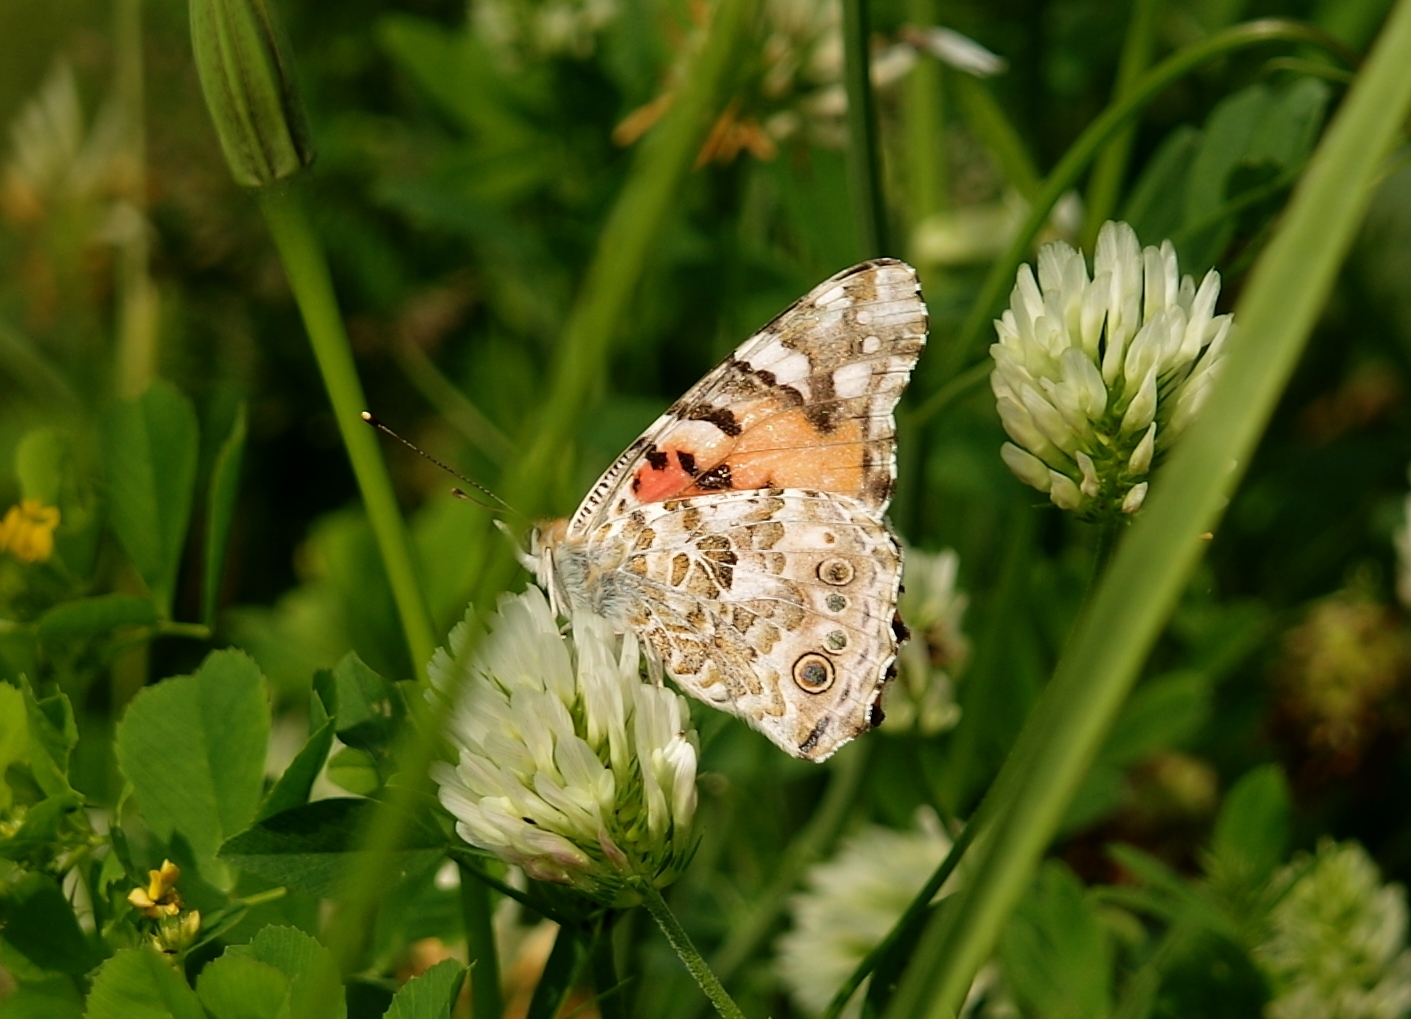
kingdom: Animalia
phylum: Arthropoda
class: Insecta
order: Lepidoptera
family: Nymphalidae
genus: Vanessa
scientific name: Vanessa cardui
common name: Painted lady
